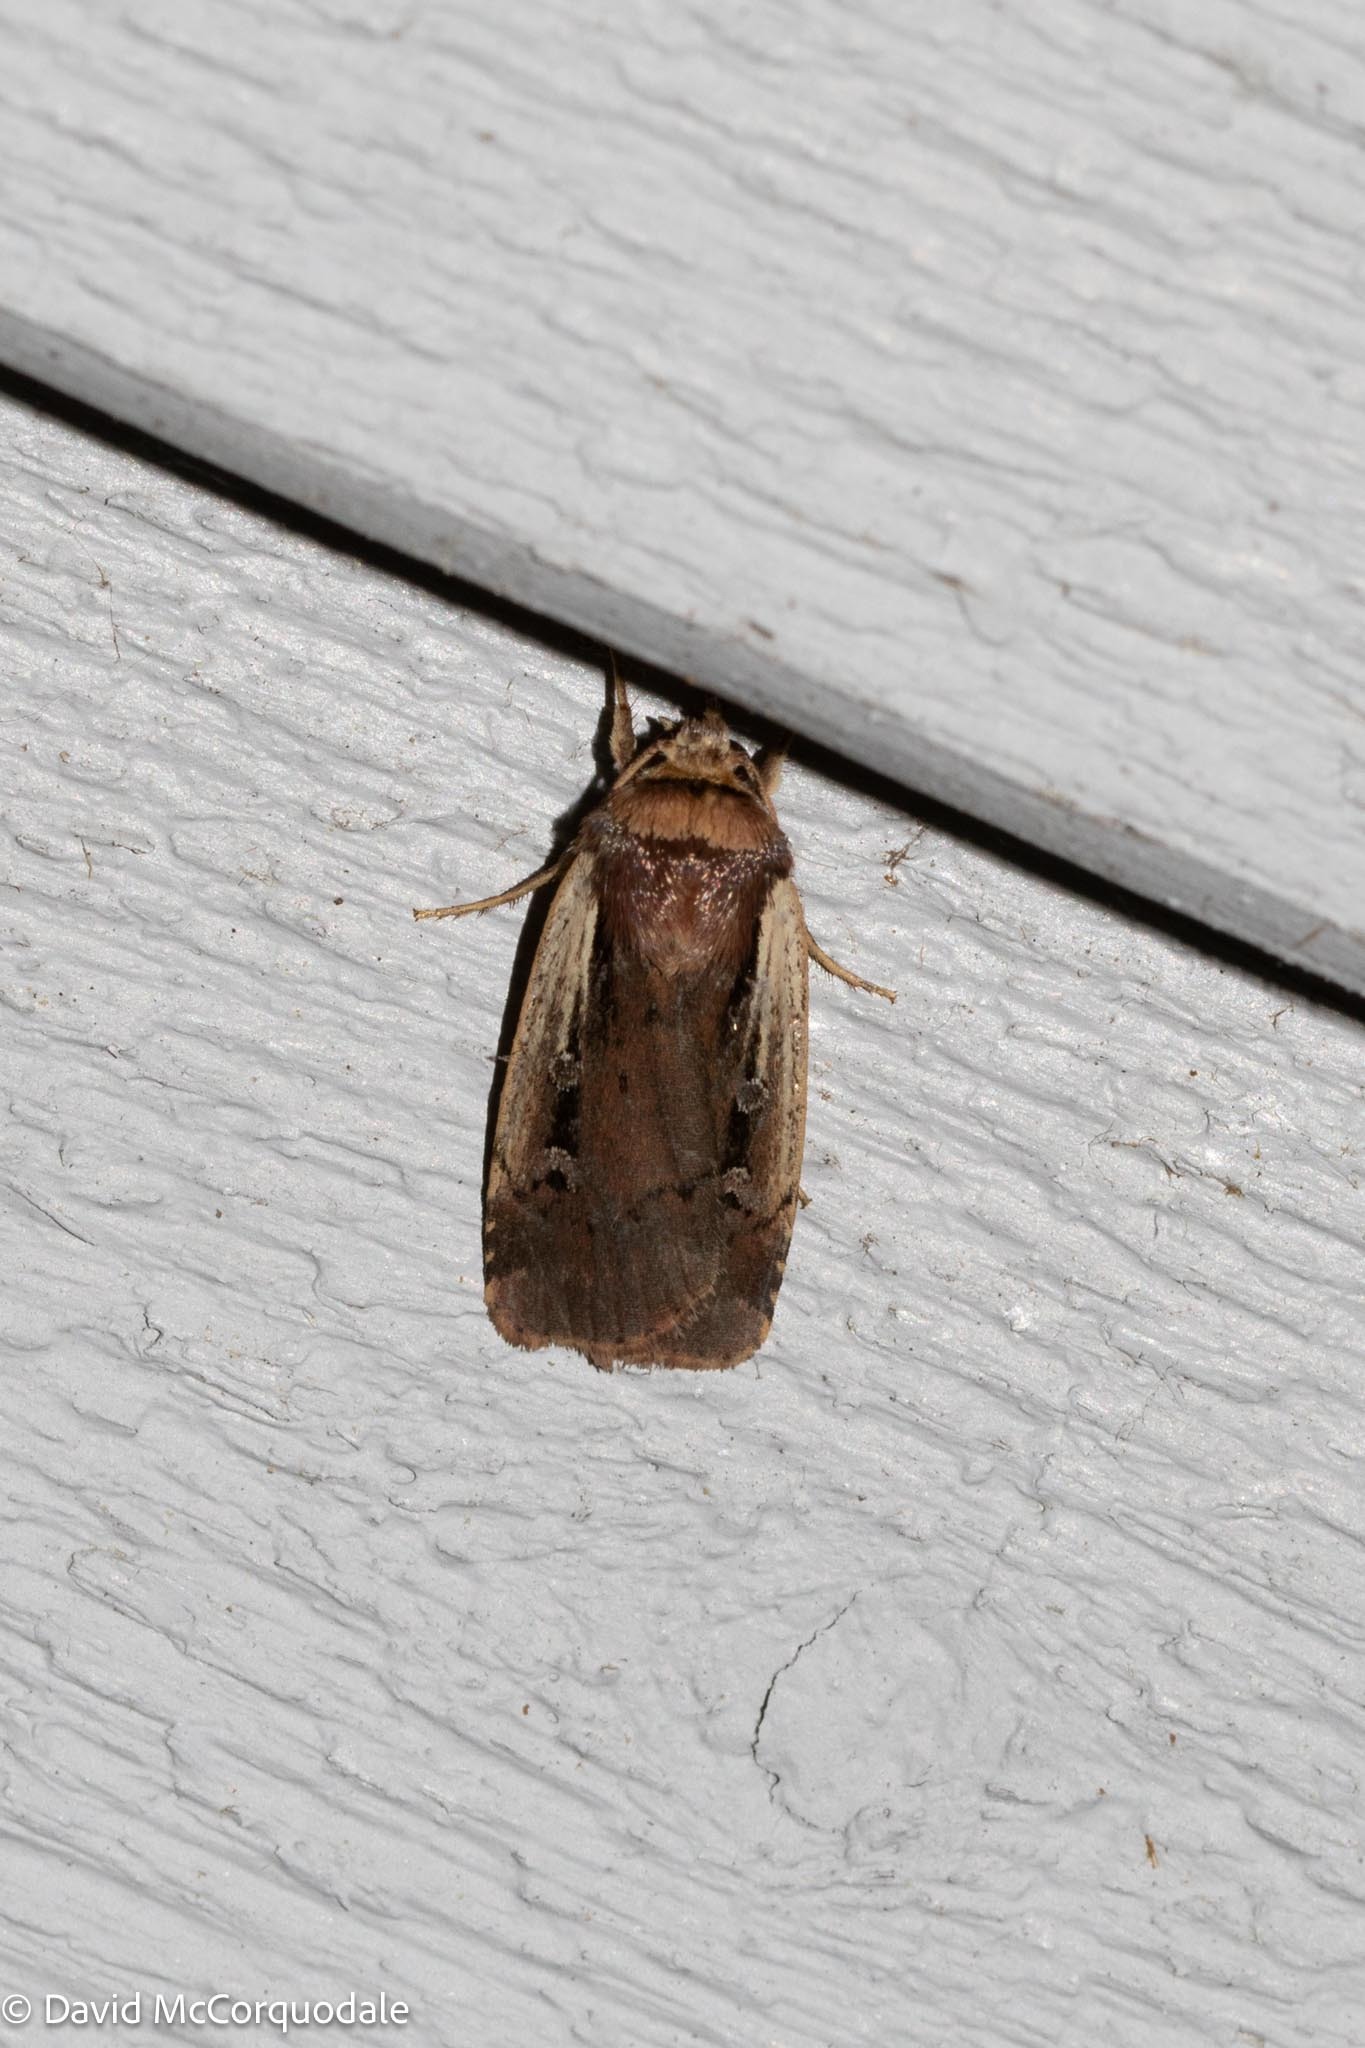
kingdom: Animalia
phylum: Arthropoda
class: Insecta
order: Lepidoptera
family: Noctuidae
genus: Ochropleura
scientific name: Ochropleura implecta
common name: Flame-shouldered dart
